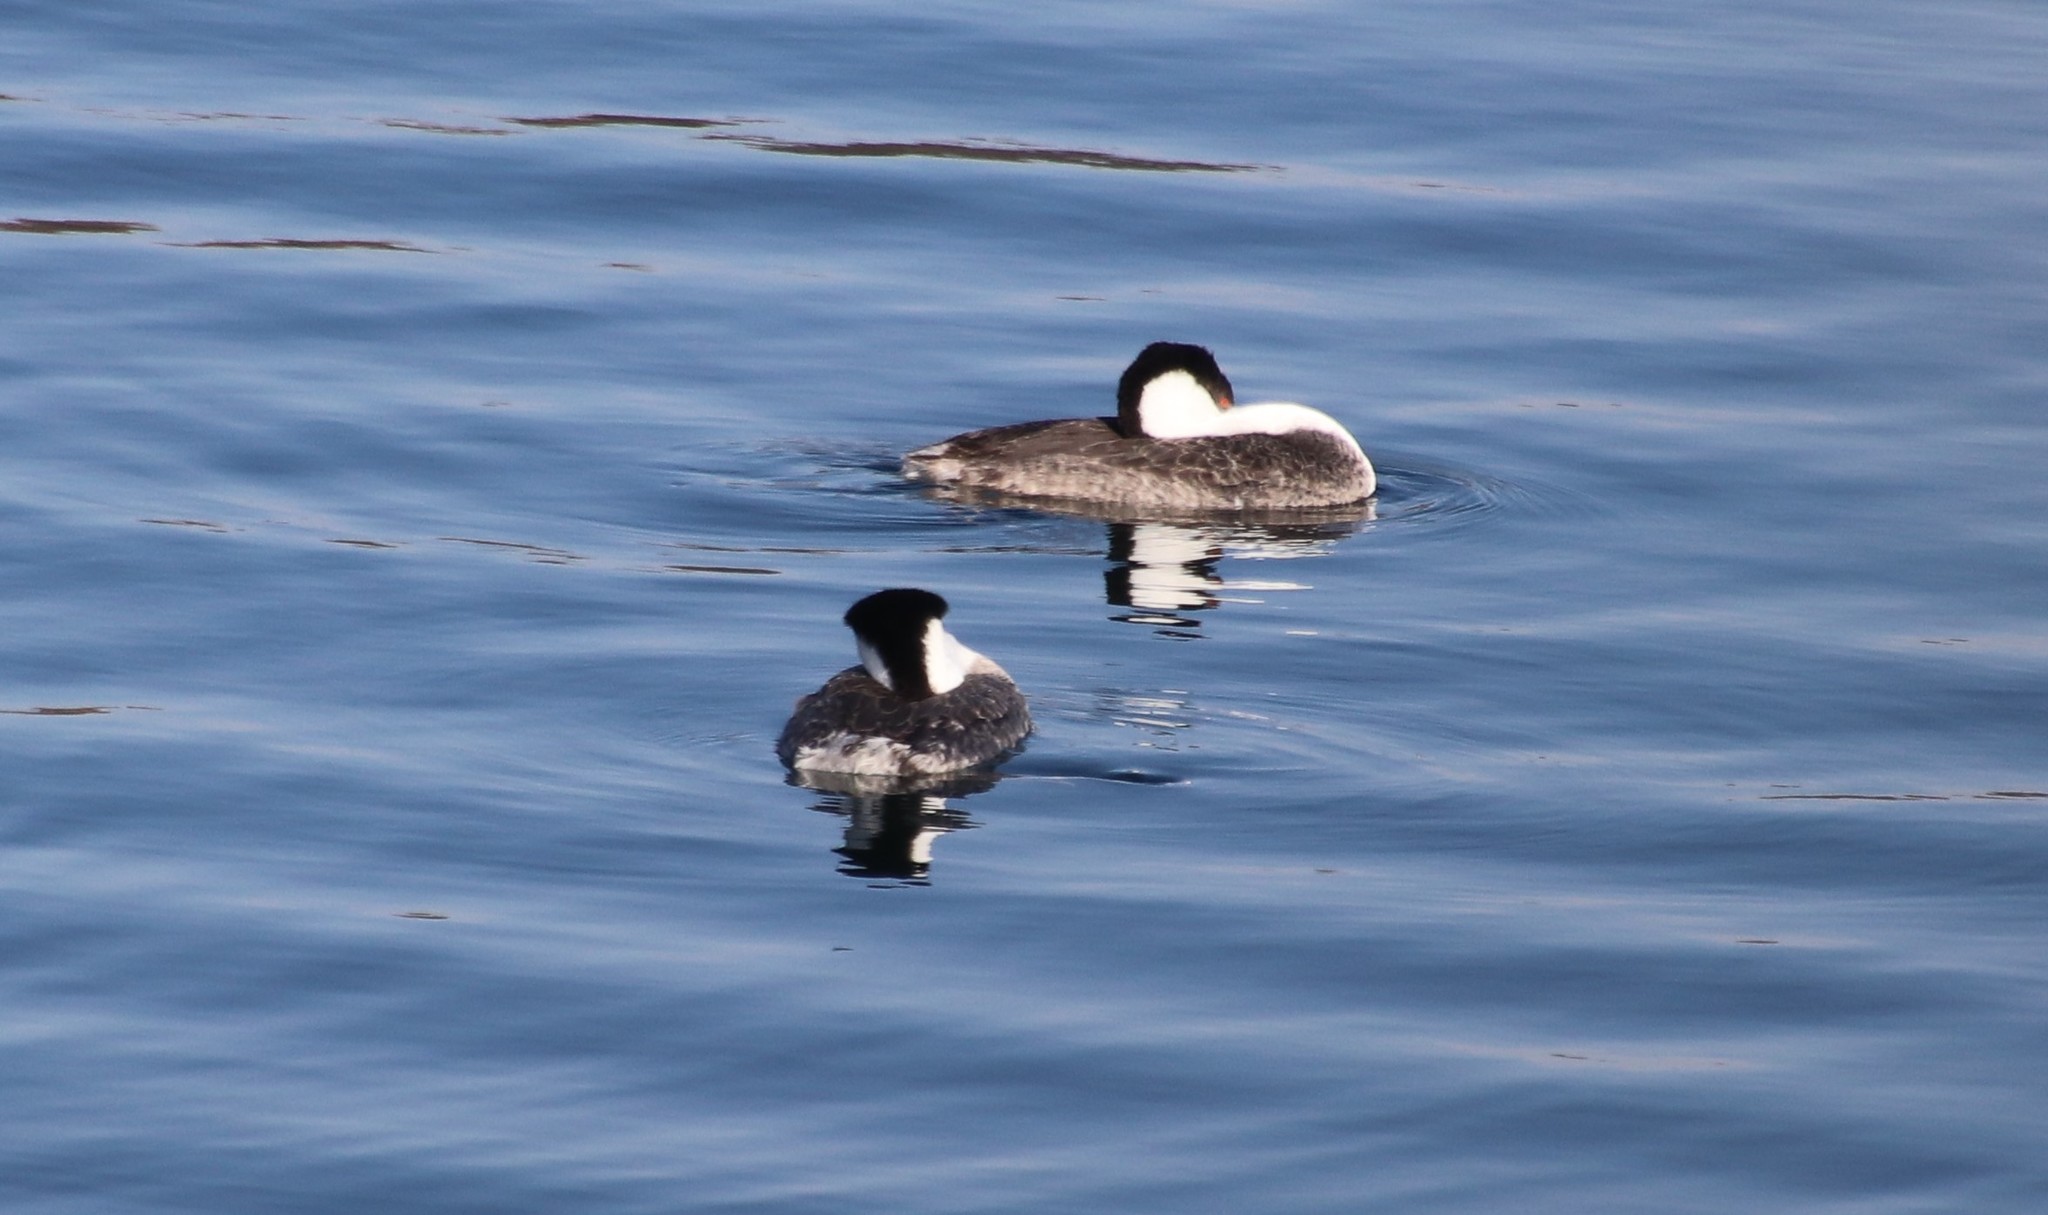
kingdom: Animalia
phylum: Chordata
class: Aves
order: Podicipediformes
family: Podicipedidae
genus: Aechmophorus
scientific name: Aechmophorus
